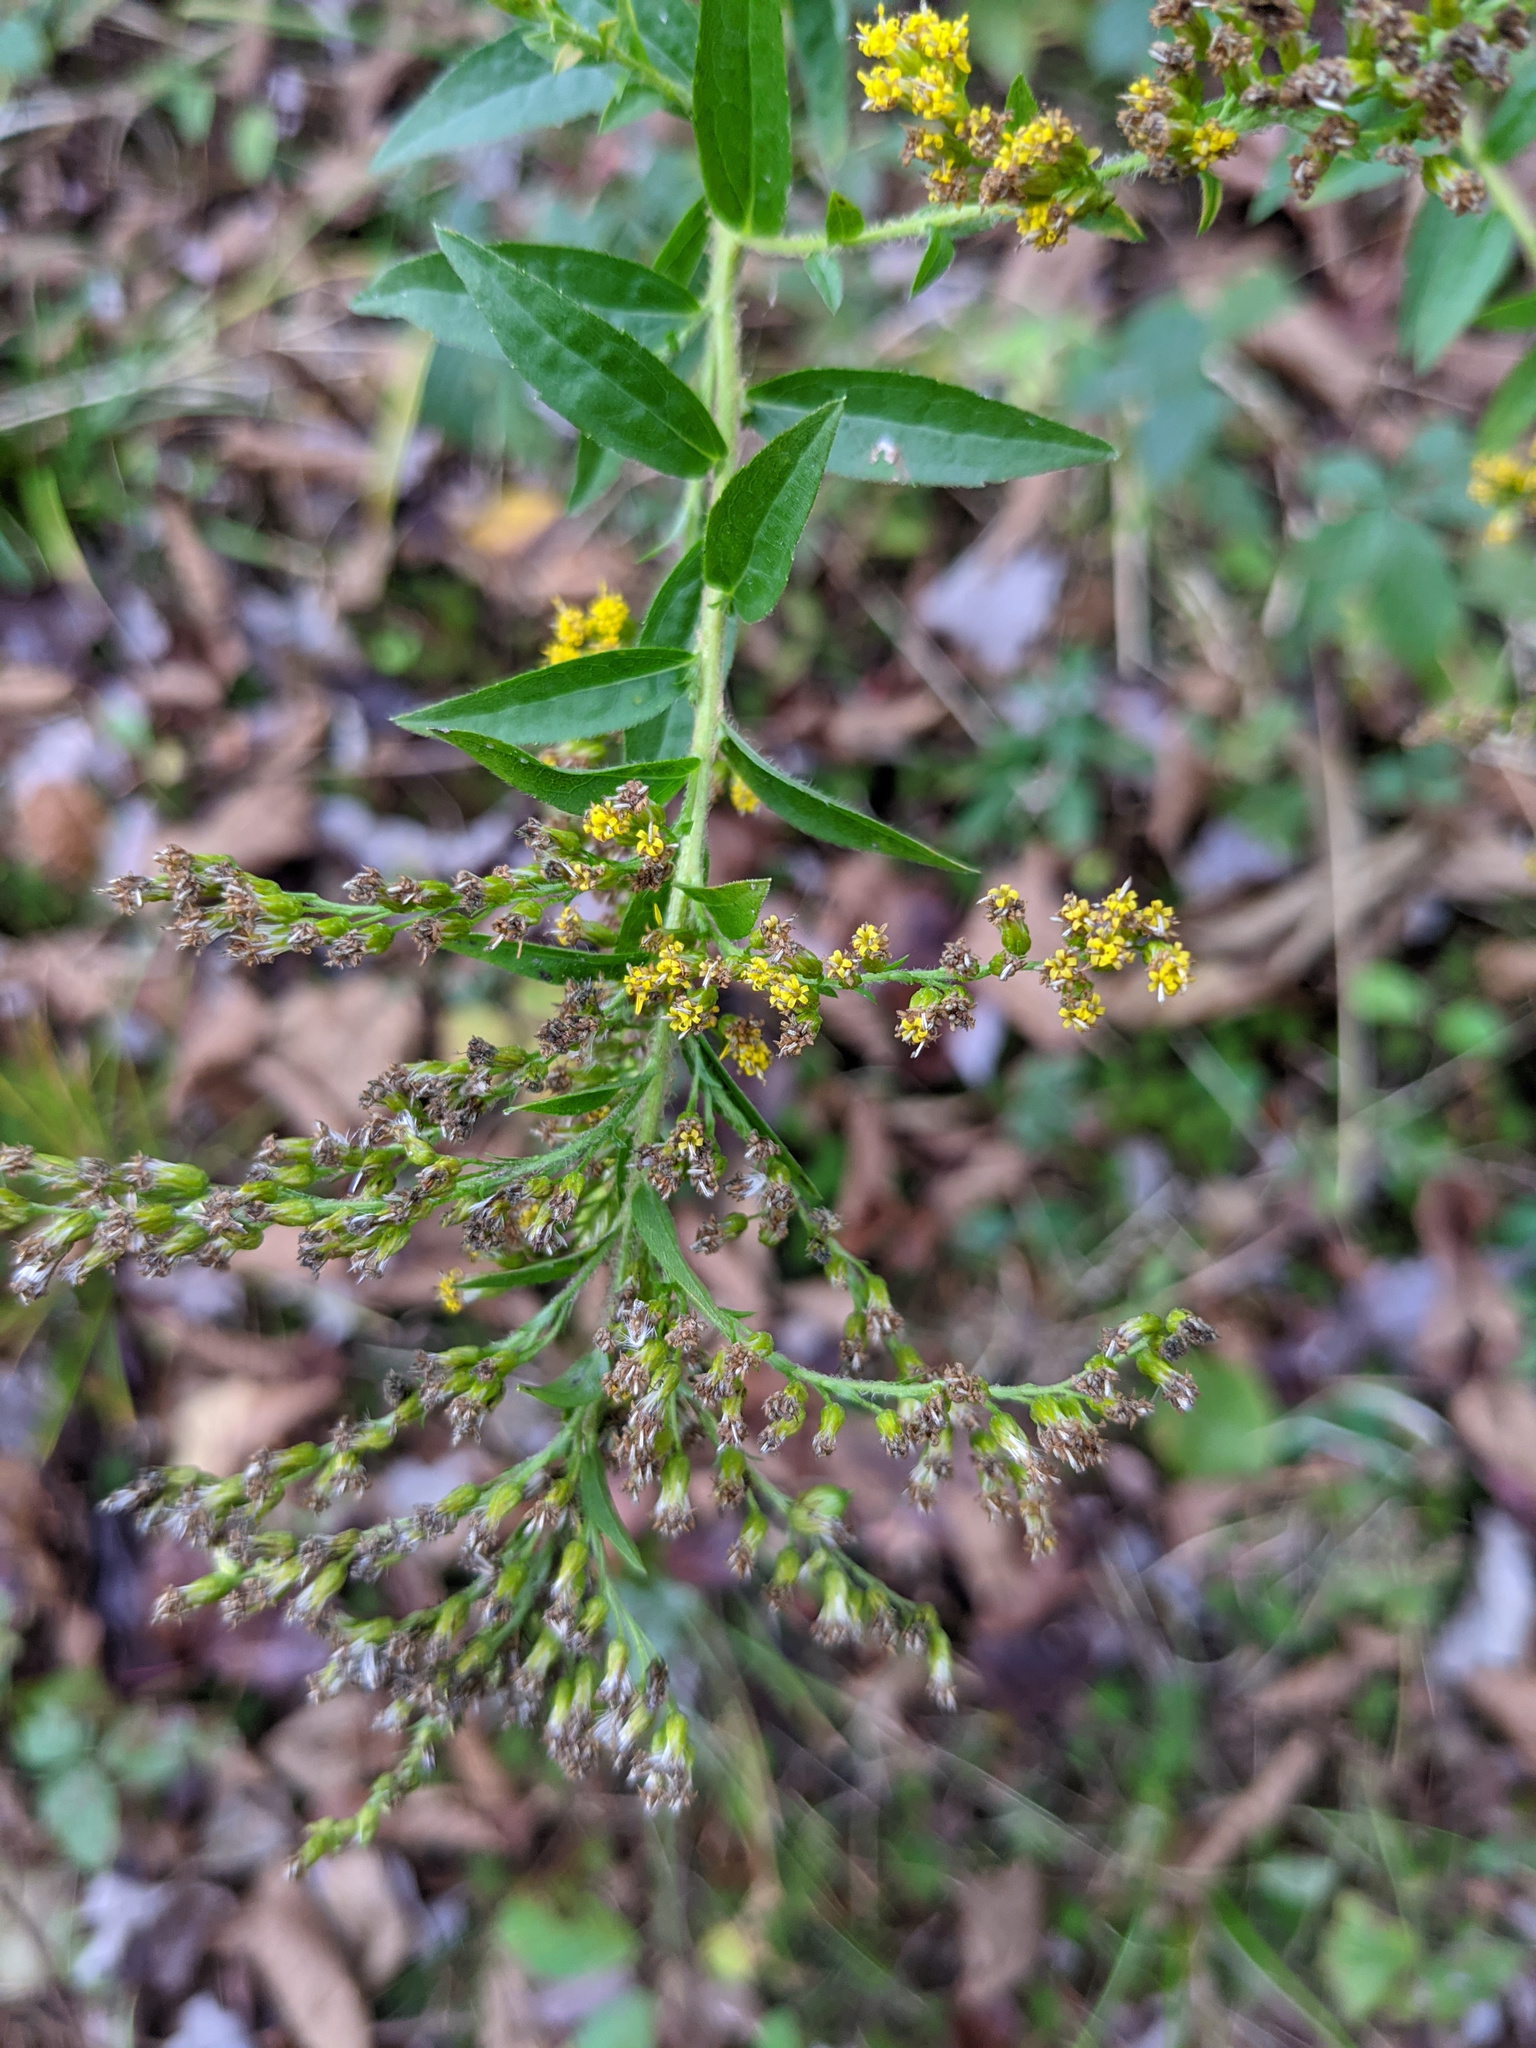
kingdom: Plantae
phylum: Tracheophyta
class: Magnoliopsida
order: Asterales
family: Asteraceae
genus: Solidago
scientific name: Solidago rugosa
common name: Rough-stemmed goldenrod
